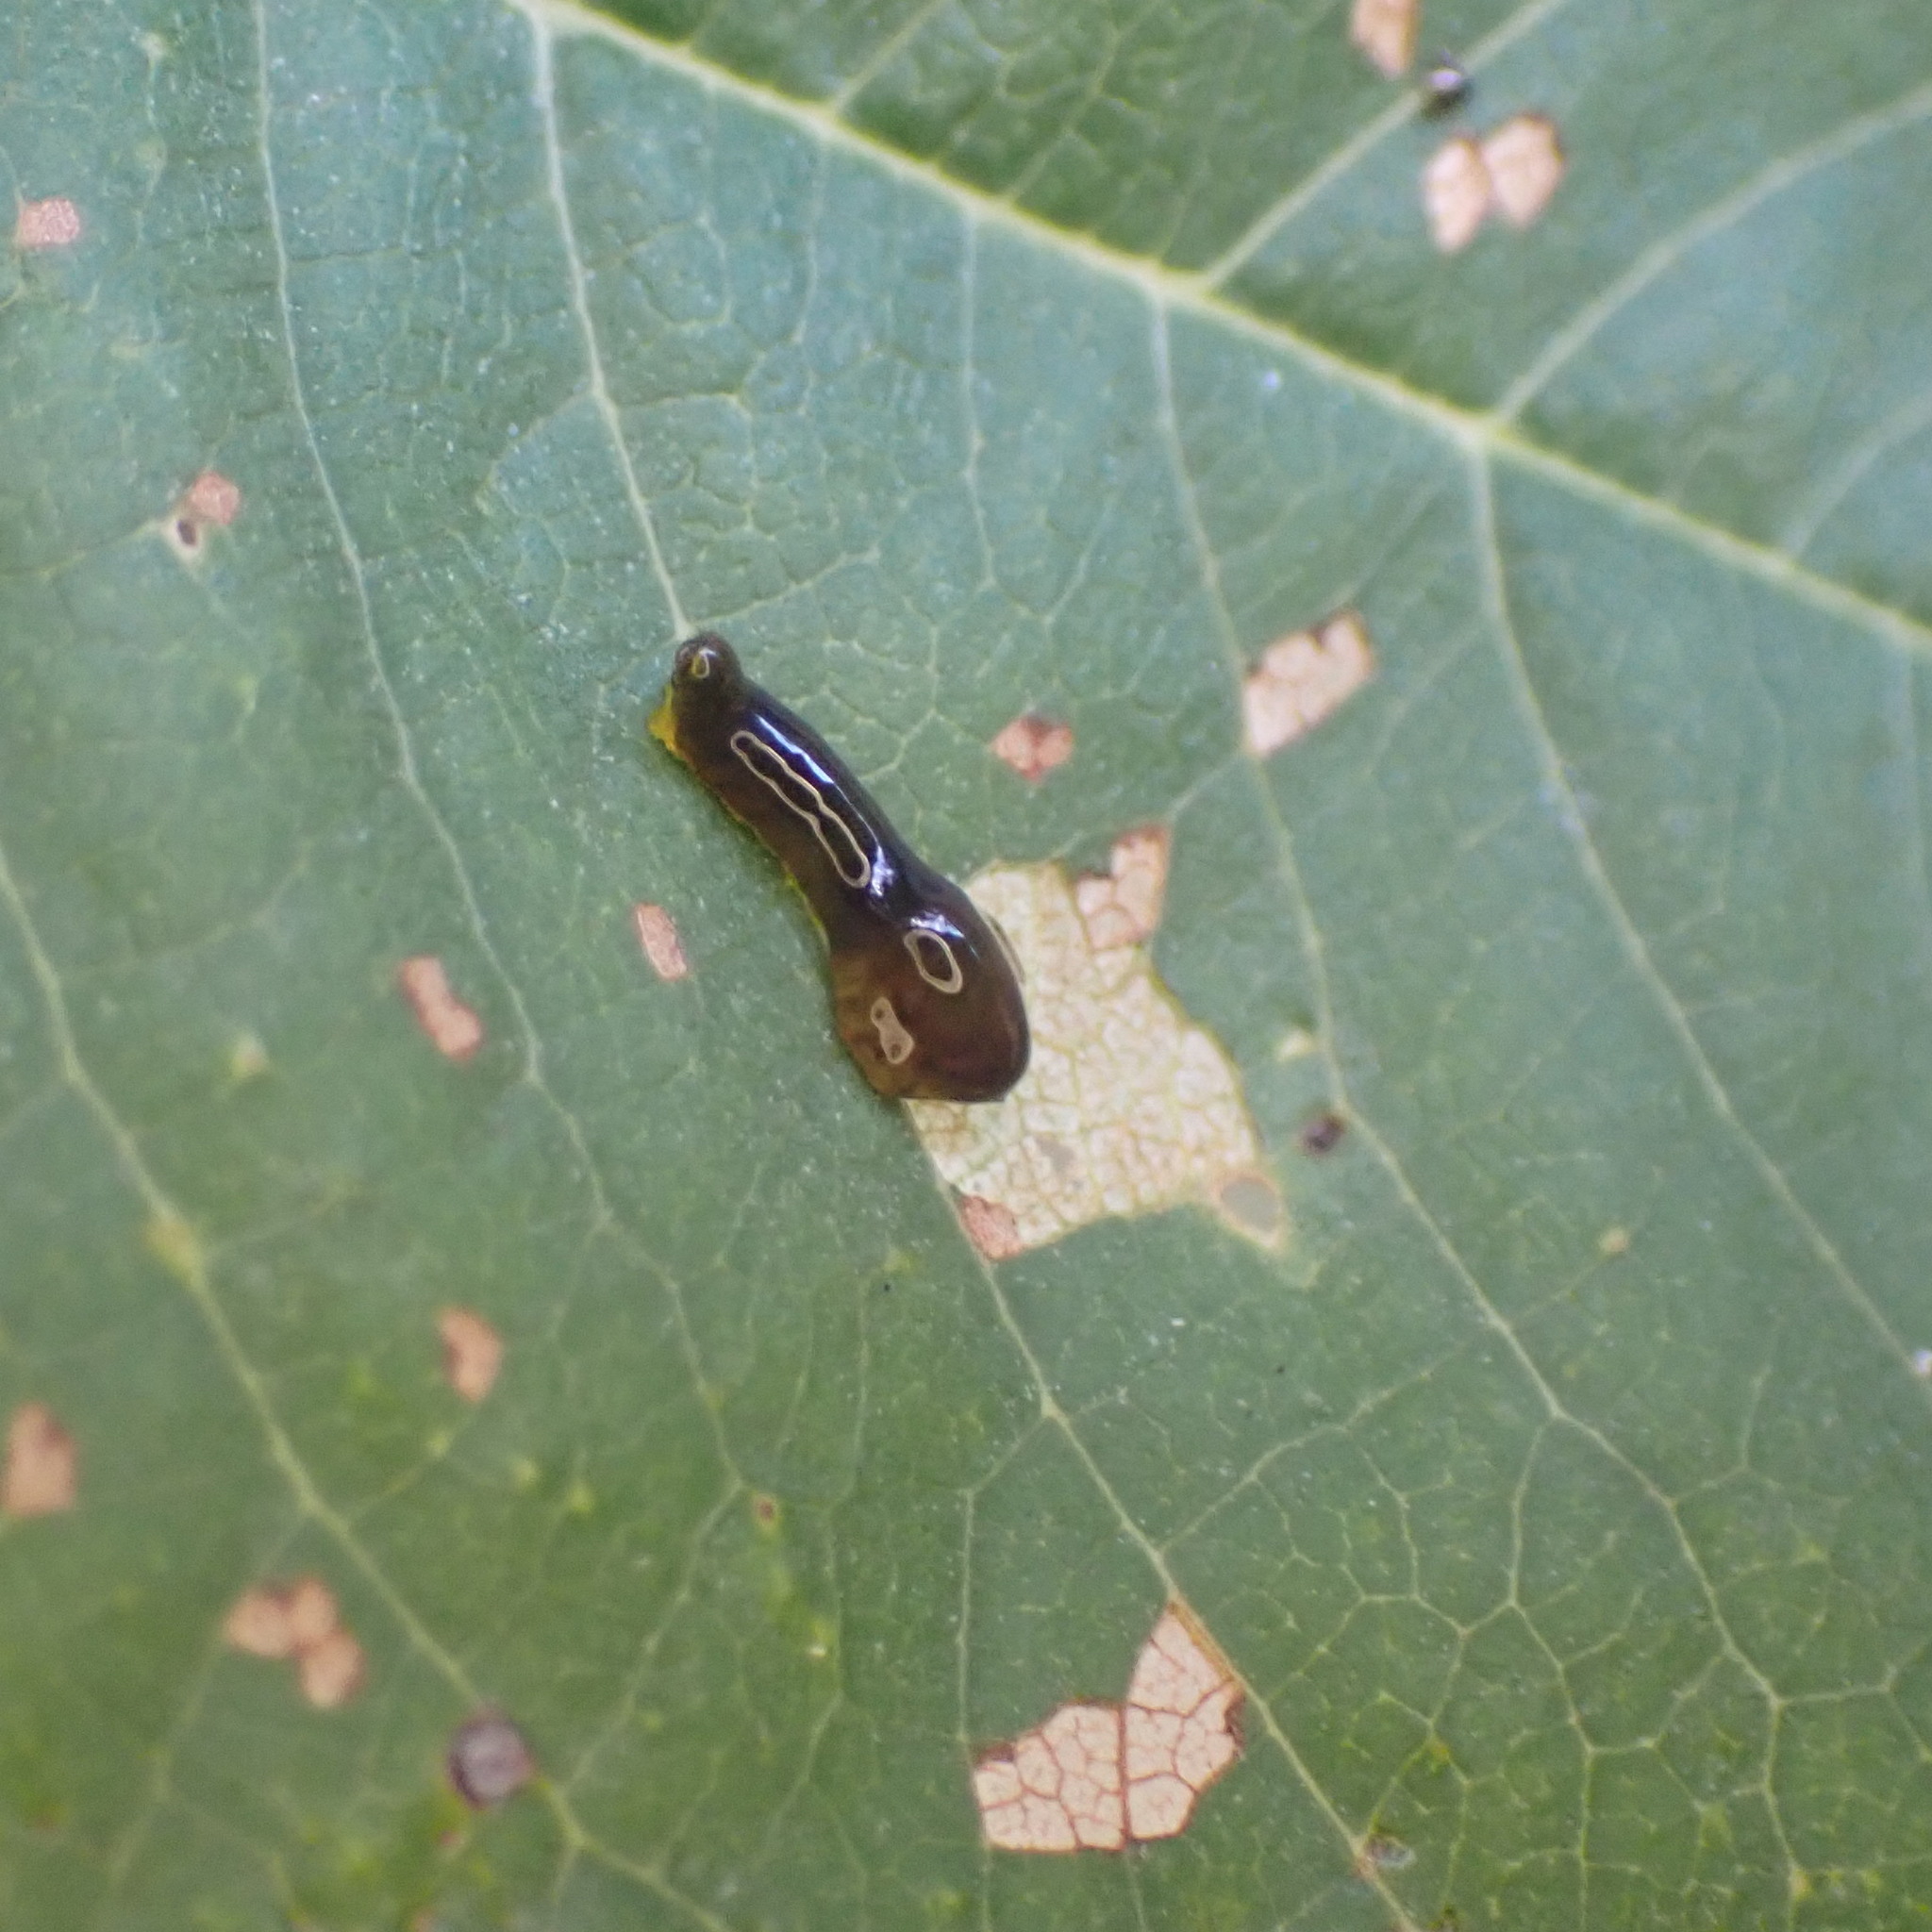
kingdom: Animalia
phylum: Arthropoda
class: Insecta
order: Hymenoptera
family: Tenthredinidae
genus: Caliroa
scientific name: Caliroa cerasi
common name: Pear sawfly
